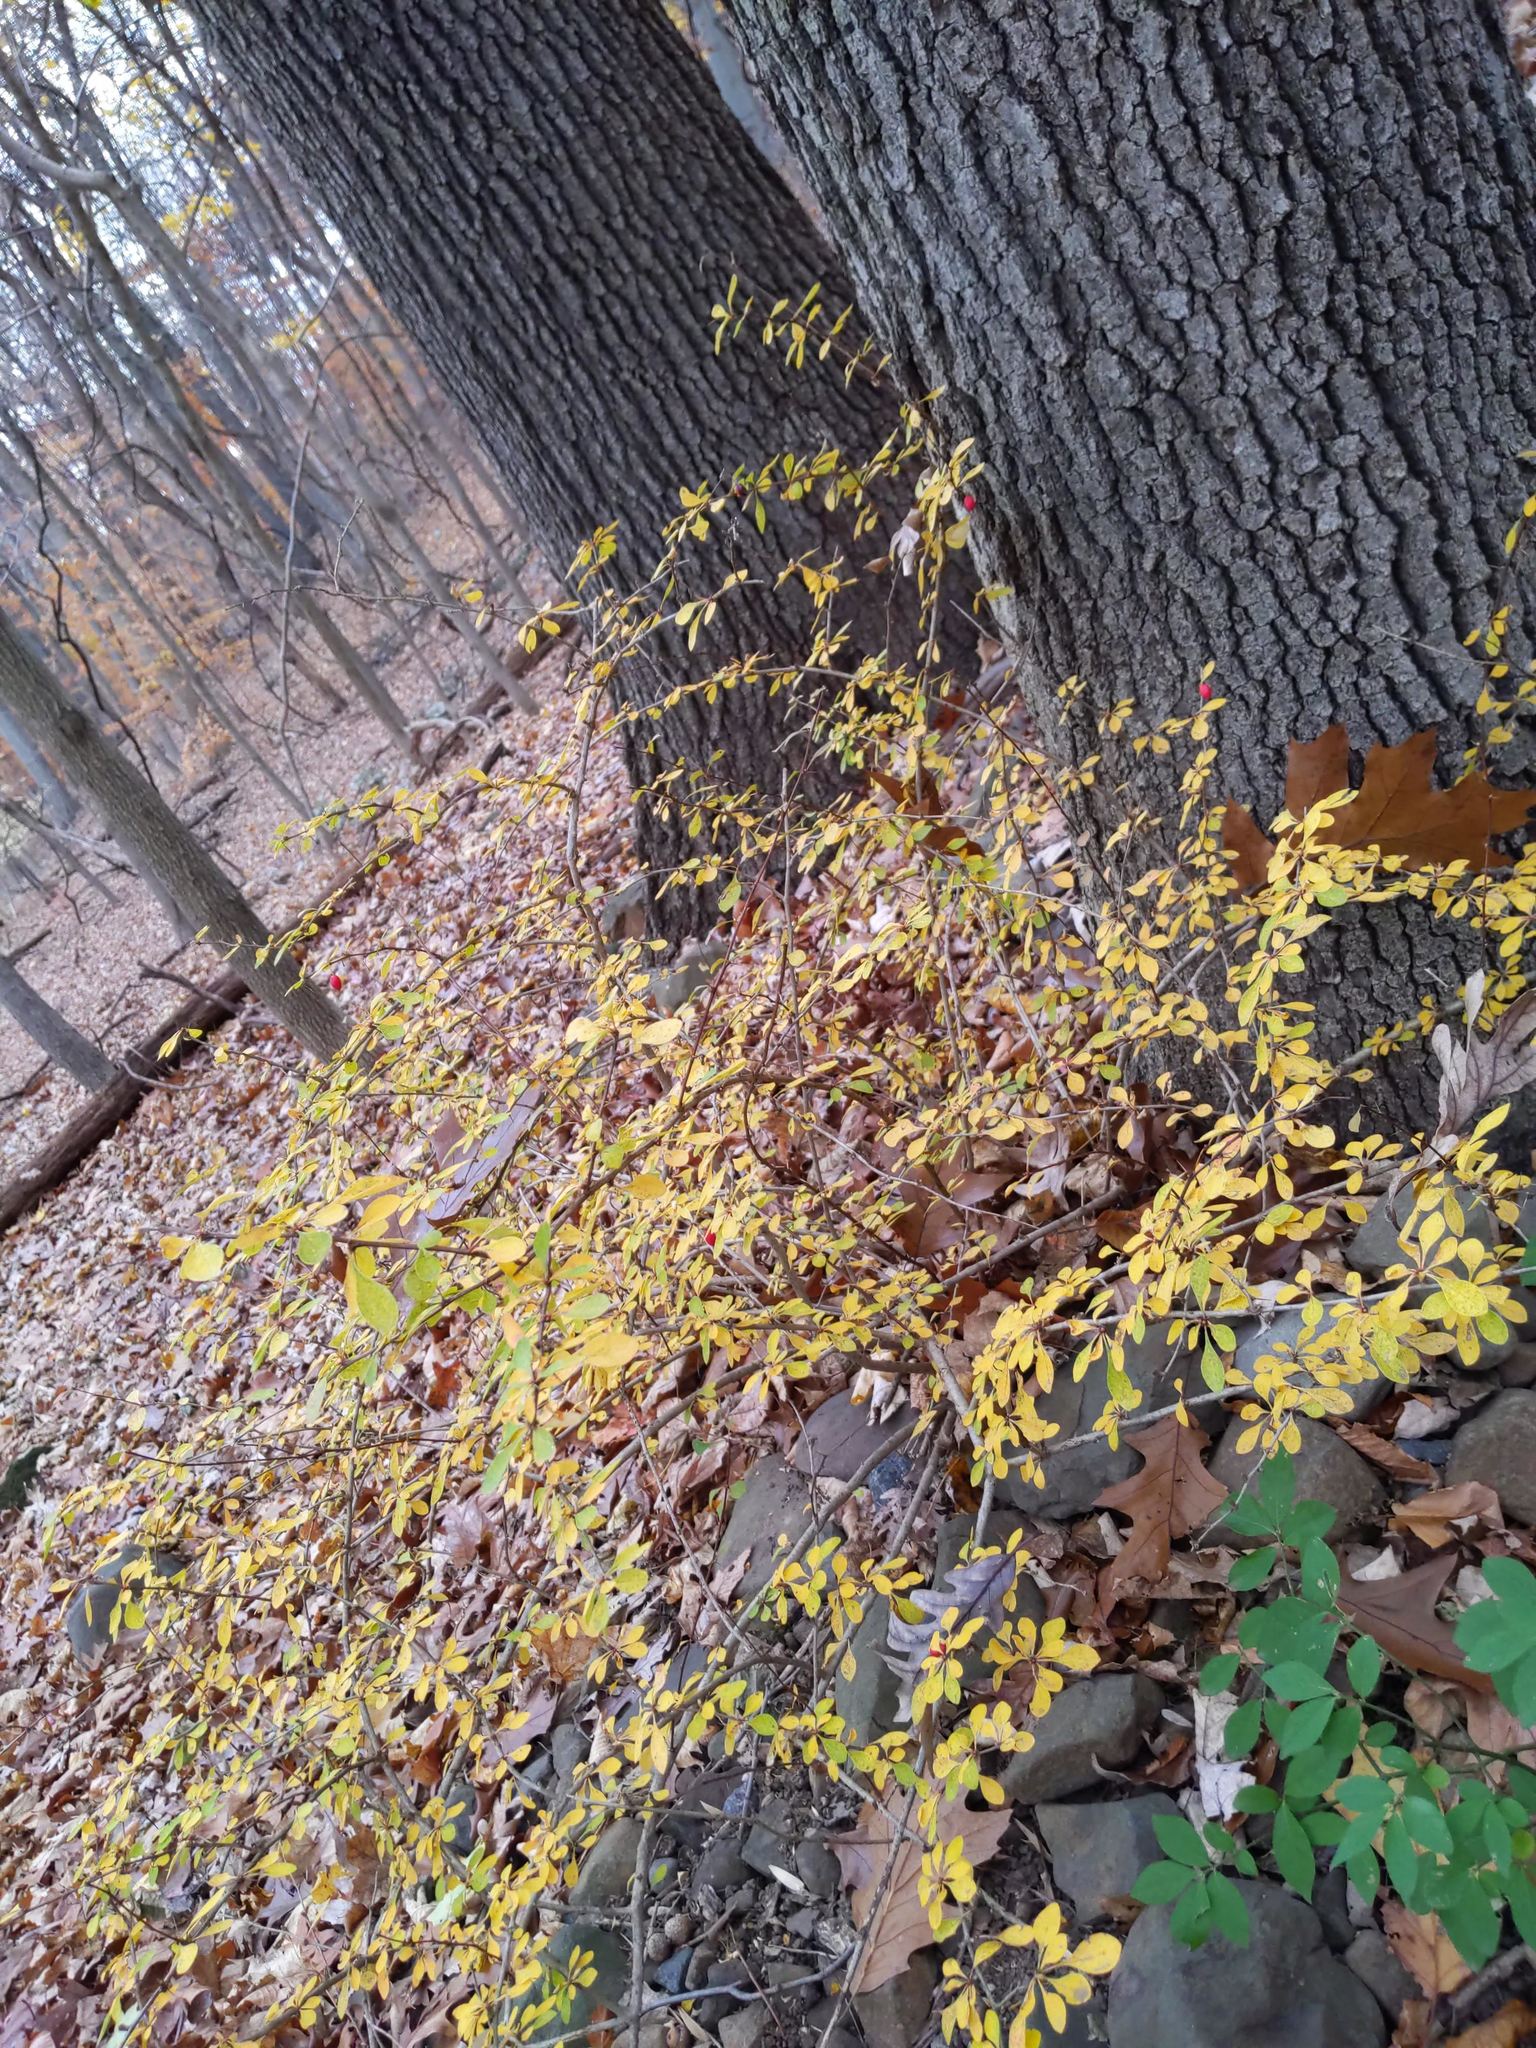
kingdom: Plantae
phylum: Tracheophyta
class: Magnoliopsida
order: Ranunculales
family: Berberidaceae
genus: Berberis
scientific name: Berberis thunbergii
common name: Japanese barberry
